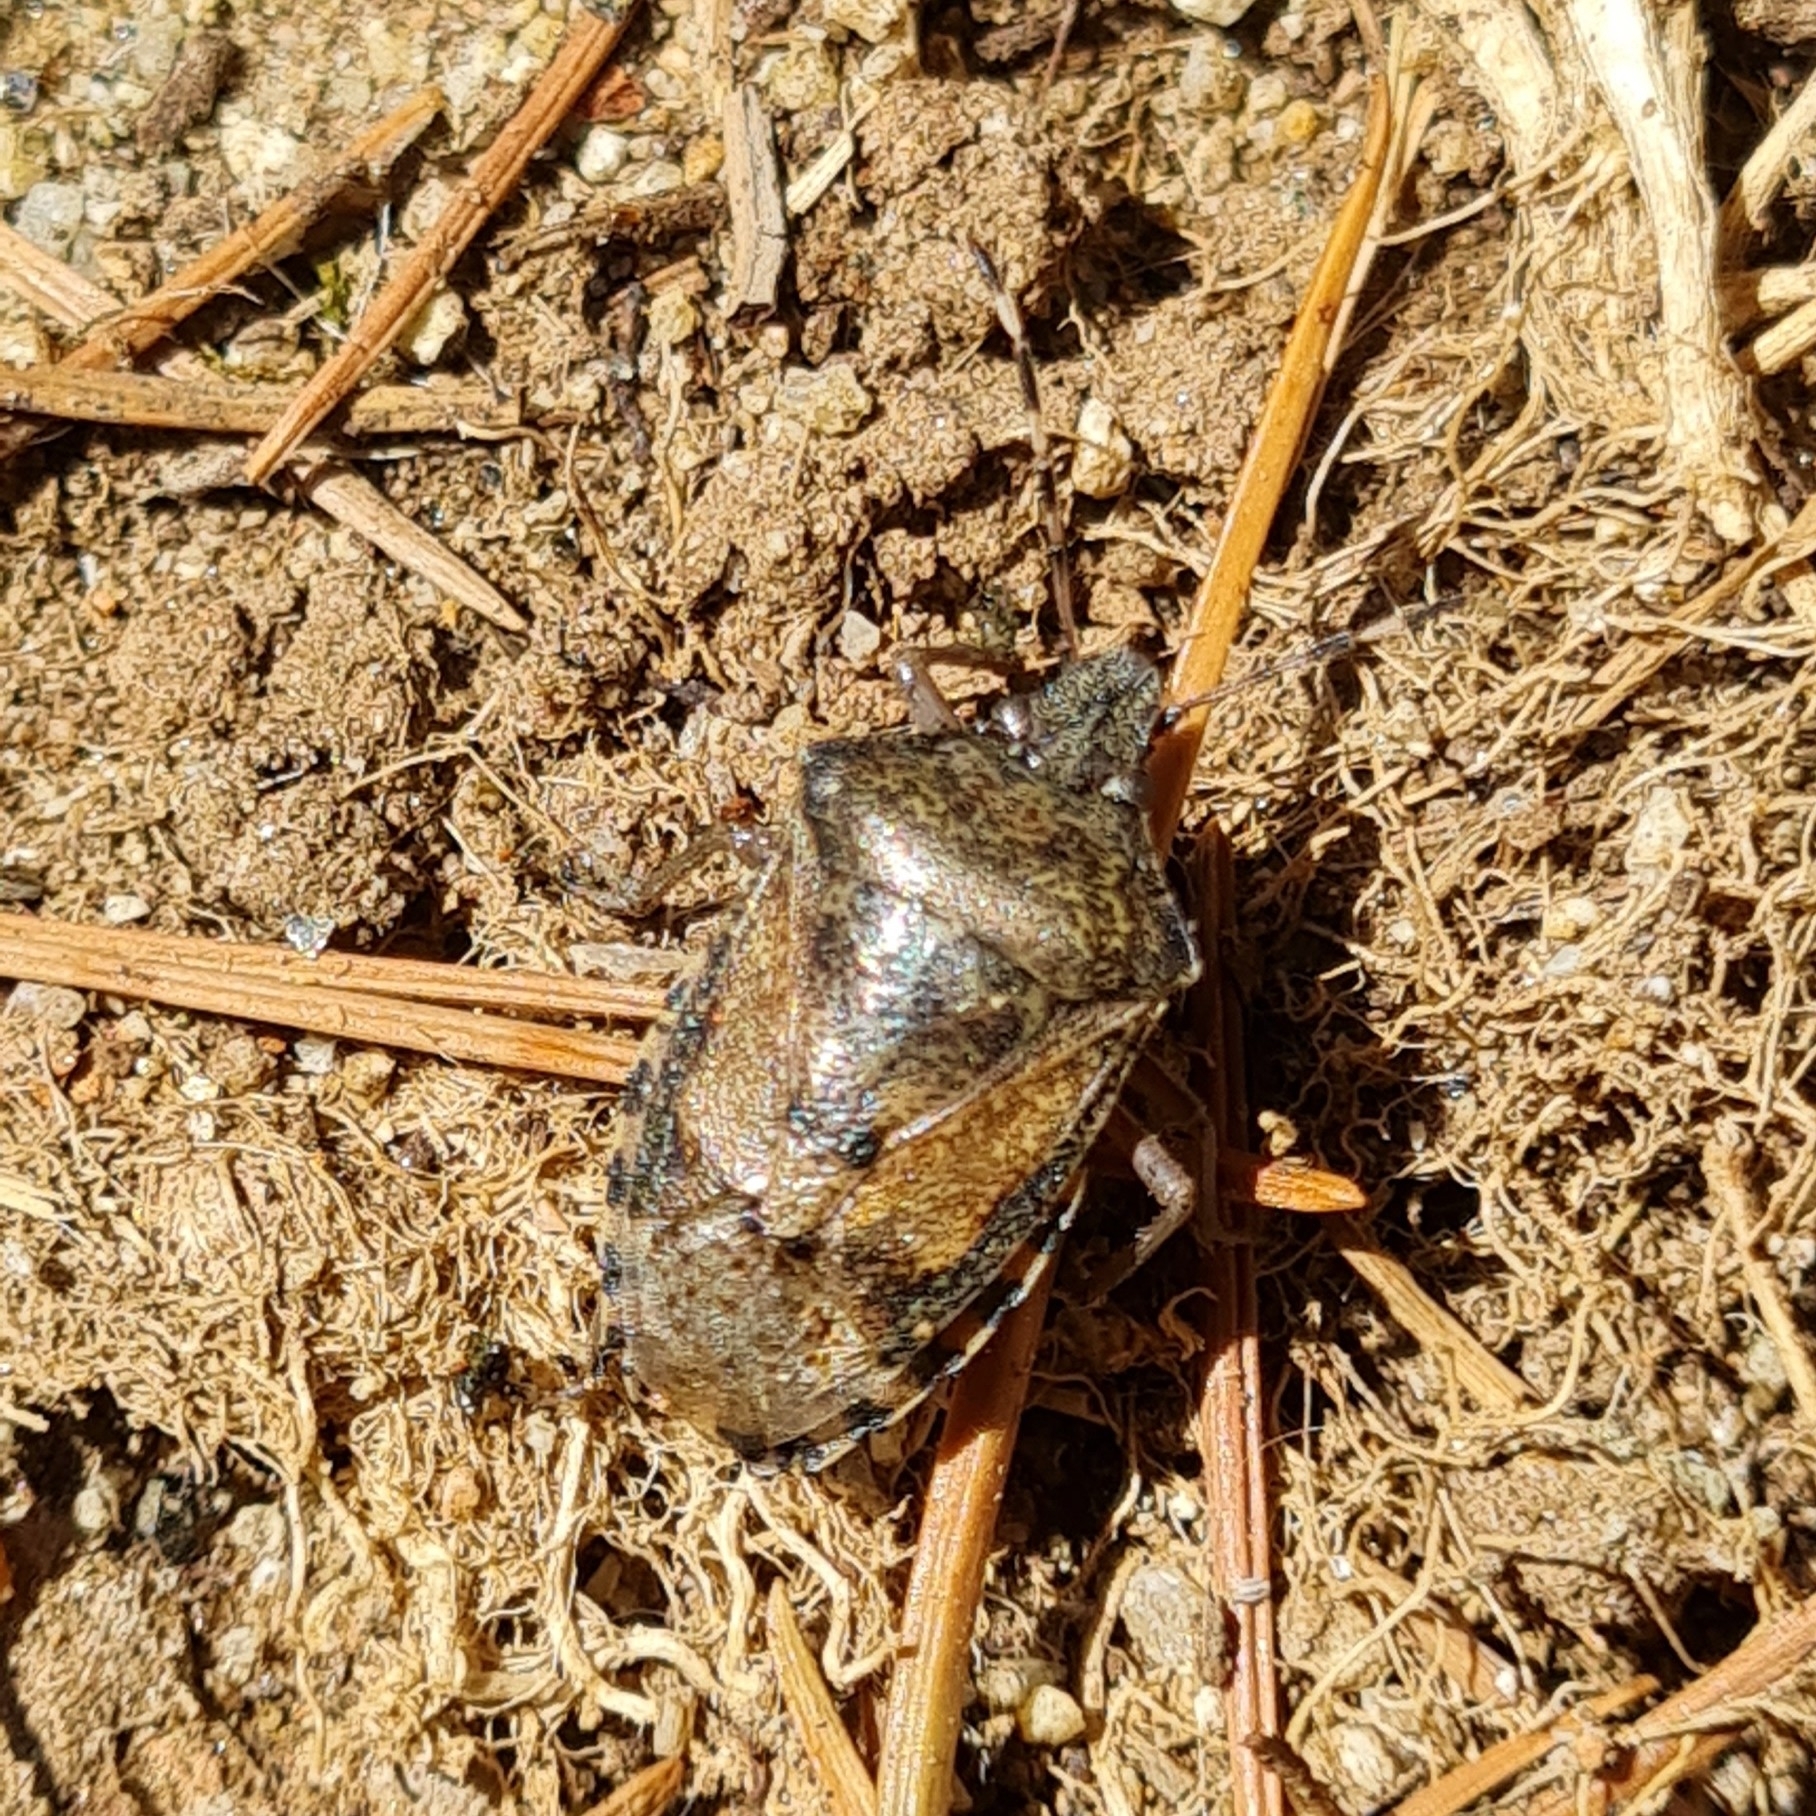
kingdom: Animalia
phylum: Arthropoda
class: Insecta
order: Hemiptera
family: Pentatomidae
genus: Rhaphigaster
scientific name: Rhaphigaster nebulosa
